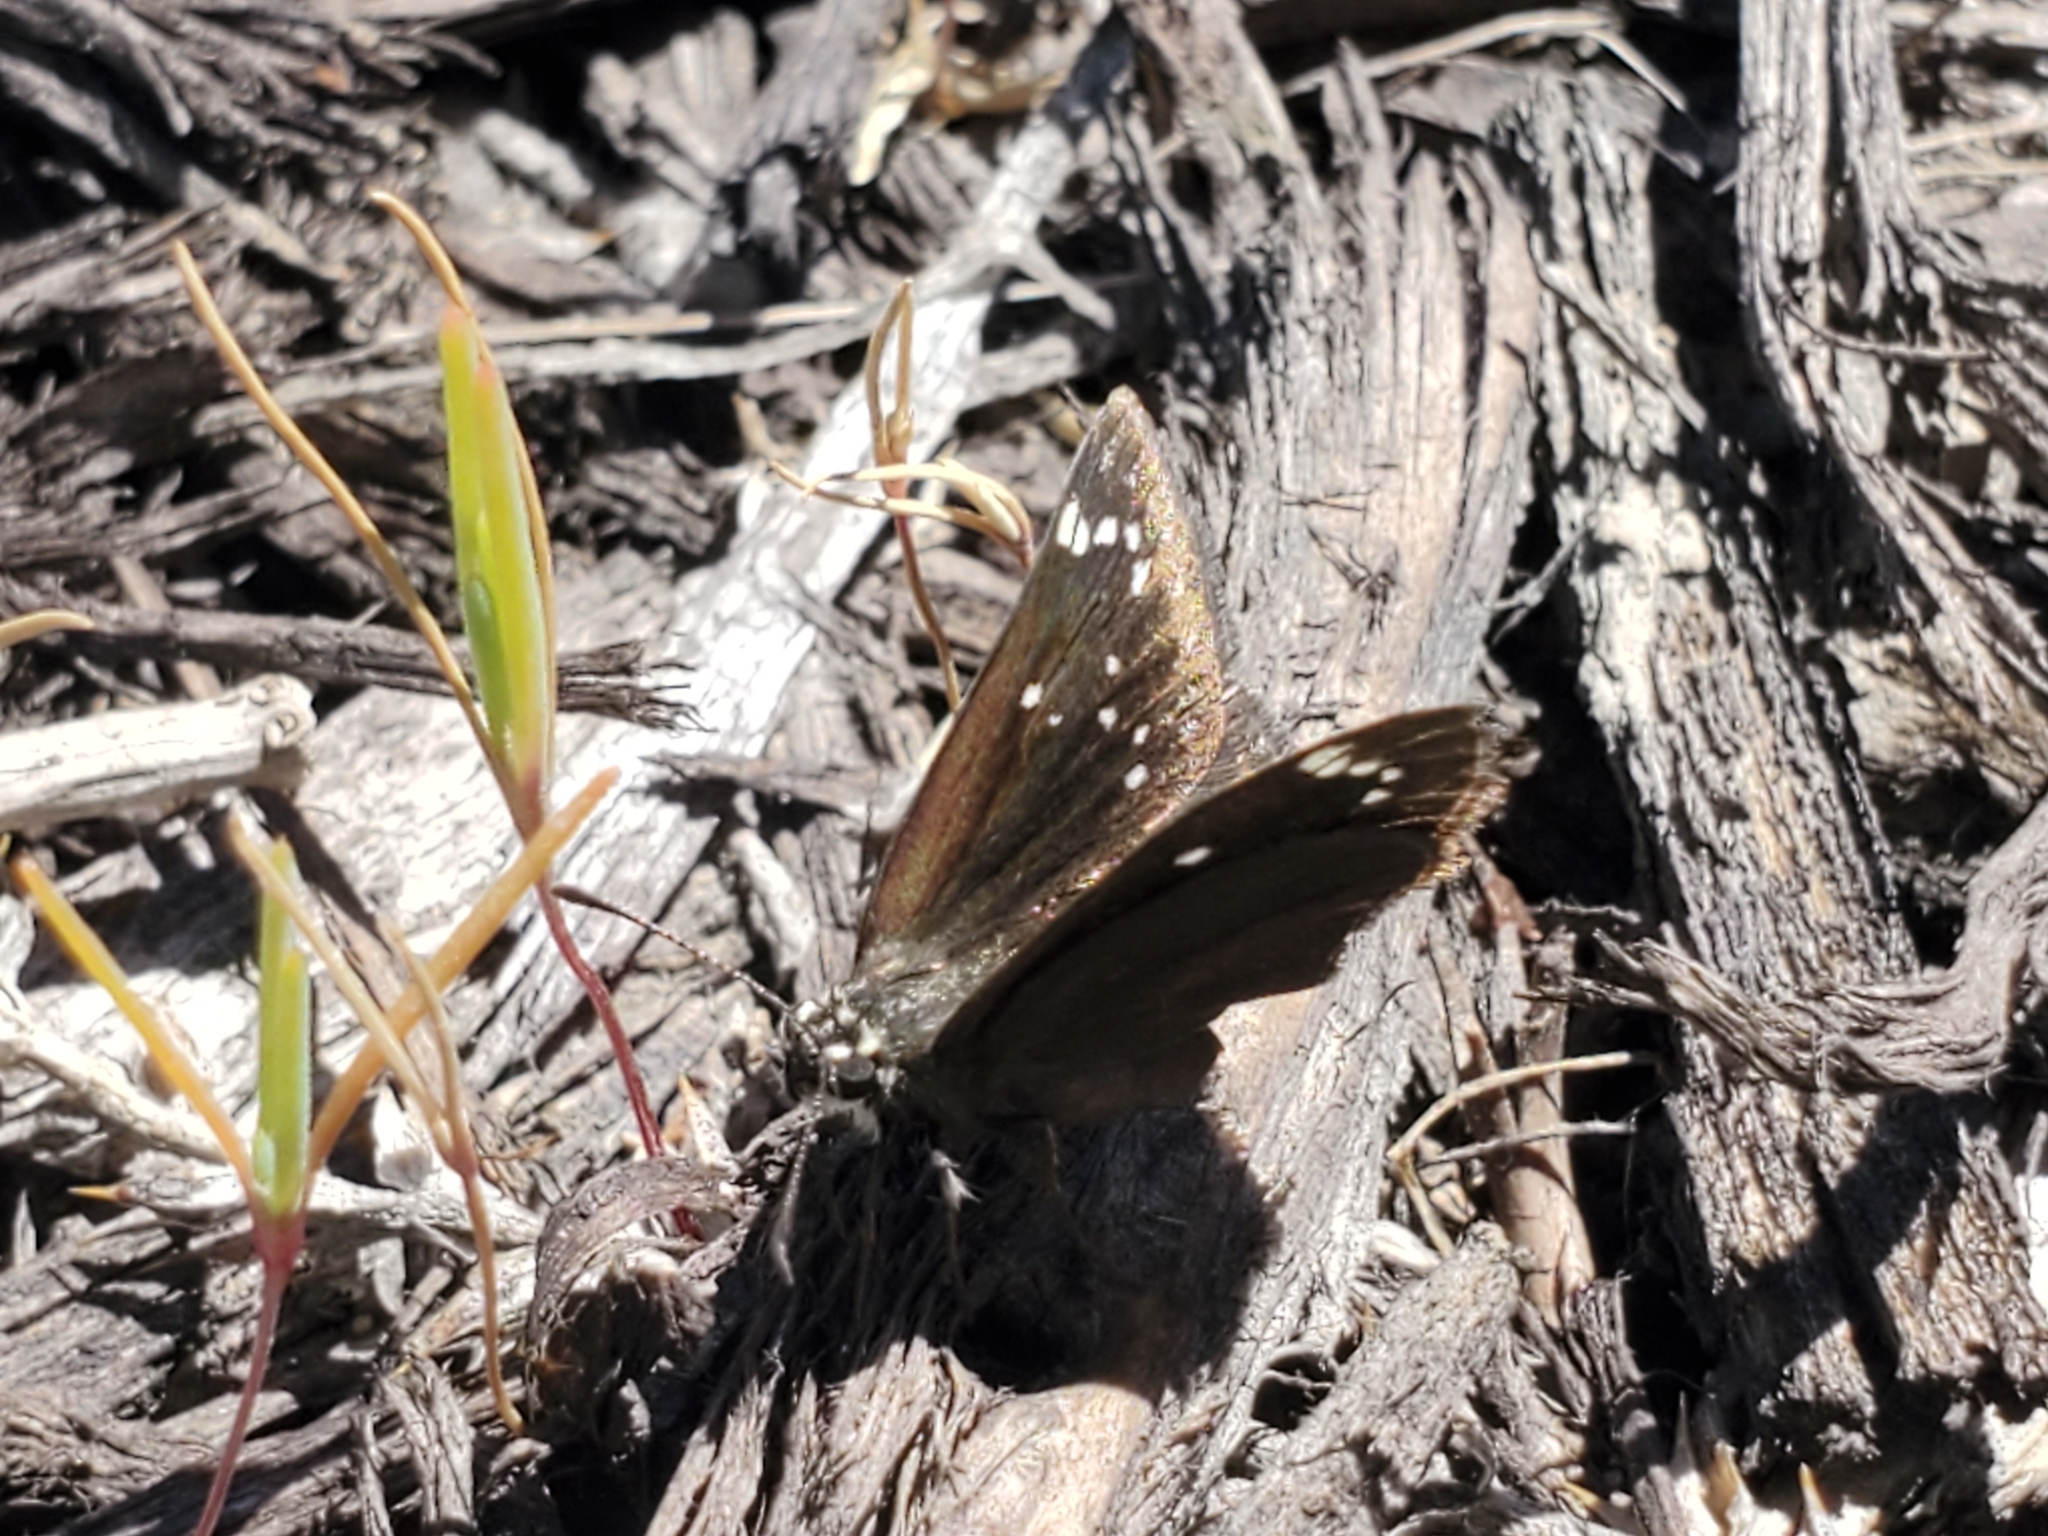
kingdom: Animalia
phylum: Arthropoda
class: Insecta
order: Lepidoptera
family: Hesperiidae
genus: Pholisora
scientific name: Pholisora catullus
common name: Common sootywing
